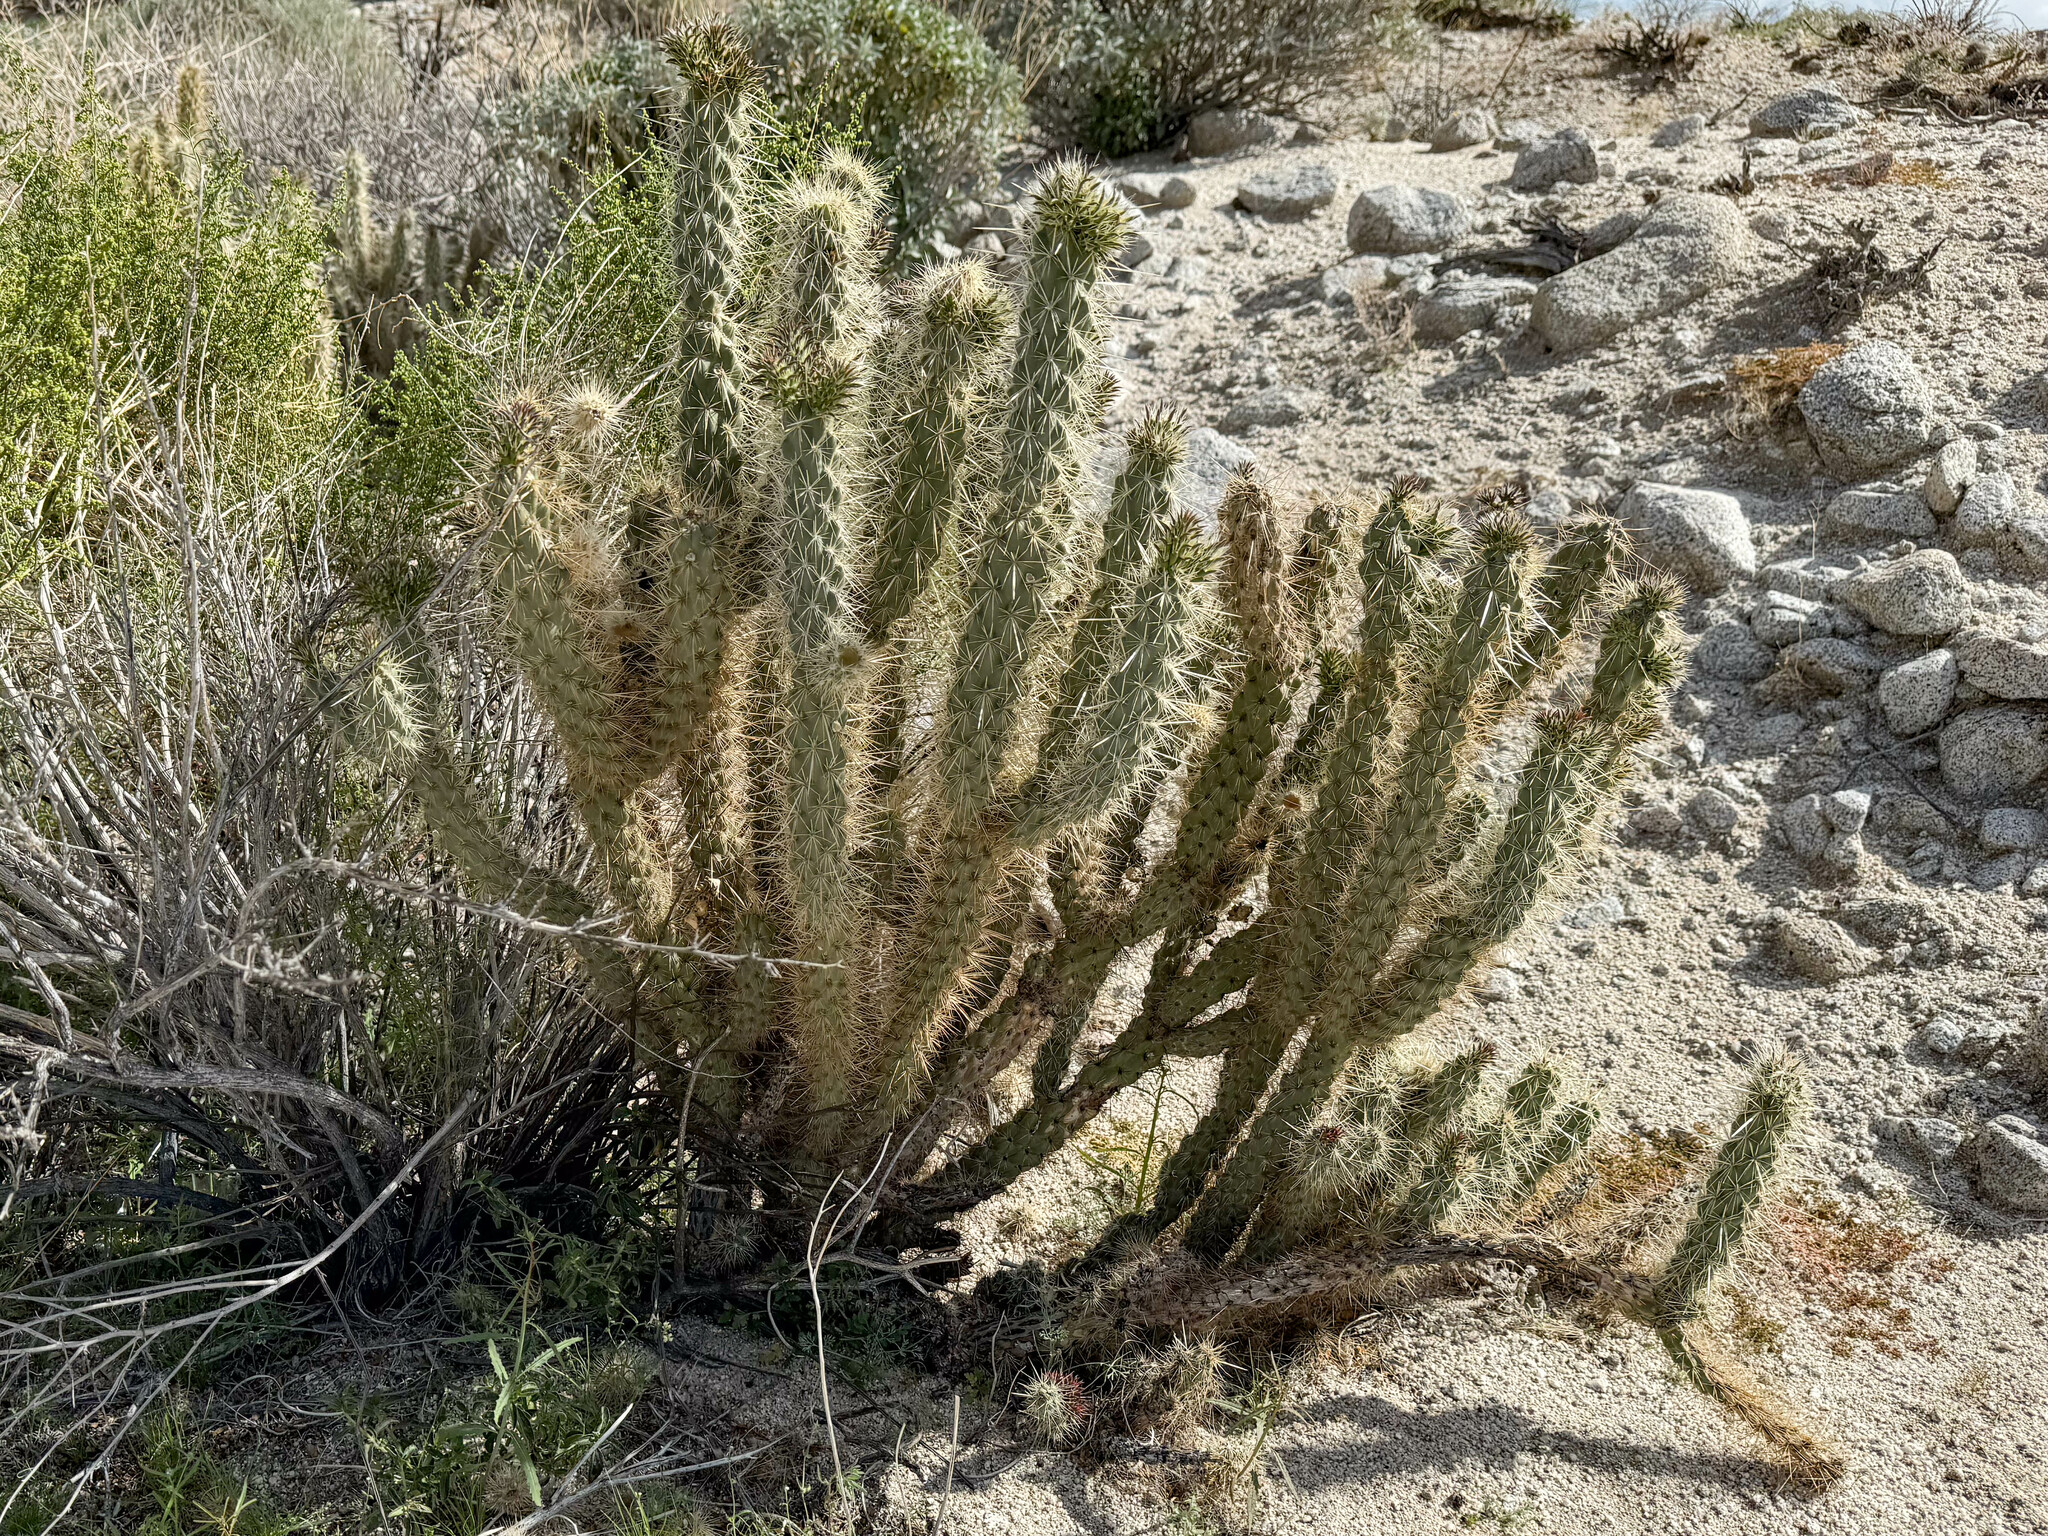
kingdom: Plantae
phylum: Tracheophyta
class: Magnoliopsida
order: Caryophyllales
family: Cactaceae
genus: Cylindropuntia
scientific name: Cylindropuntia ganderi
